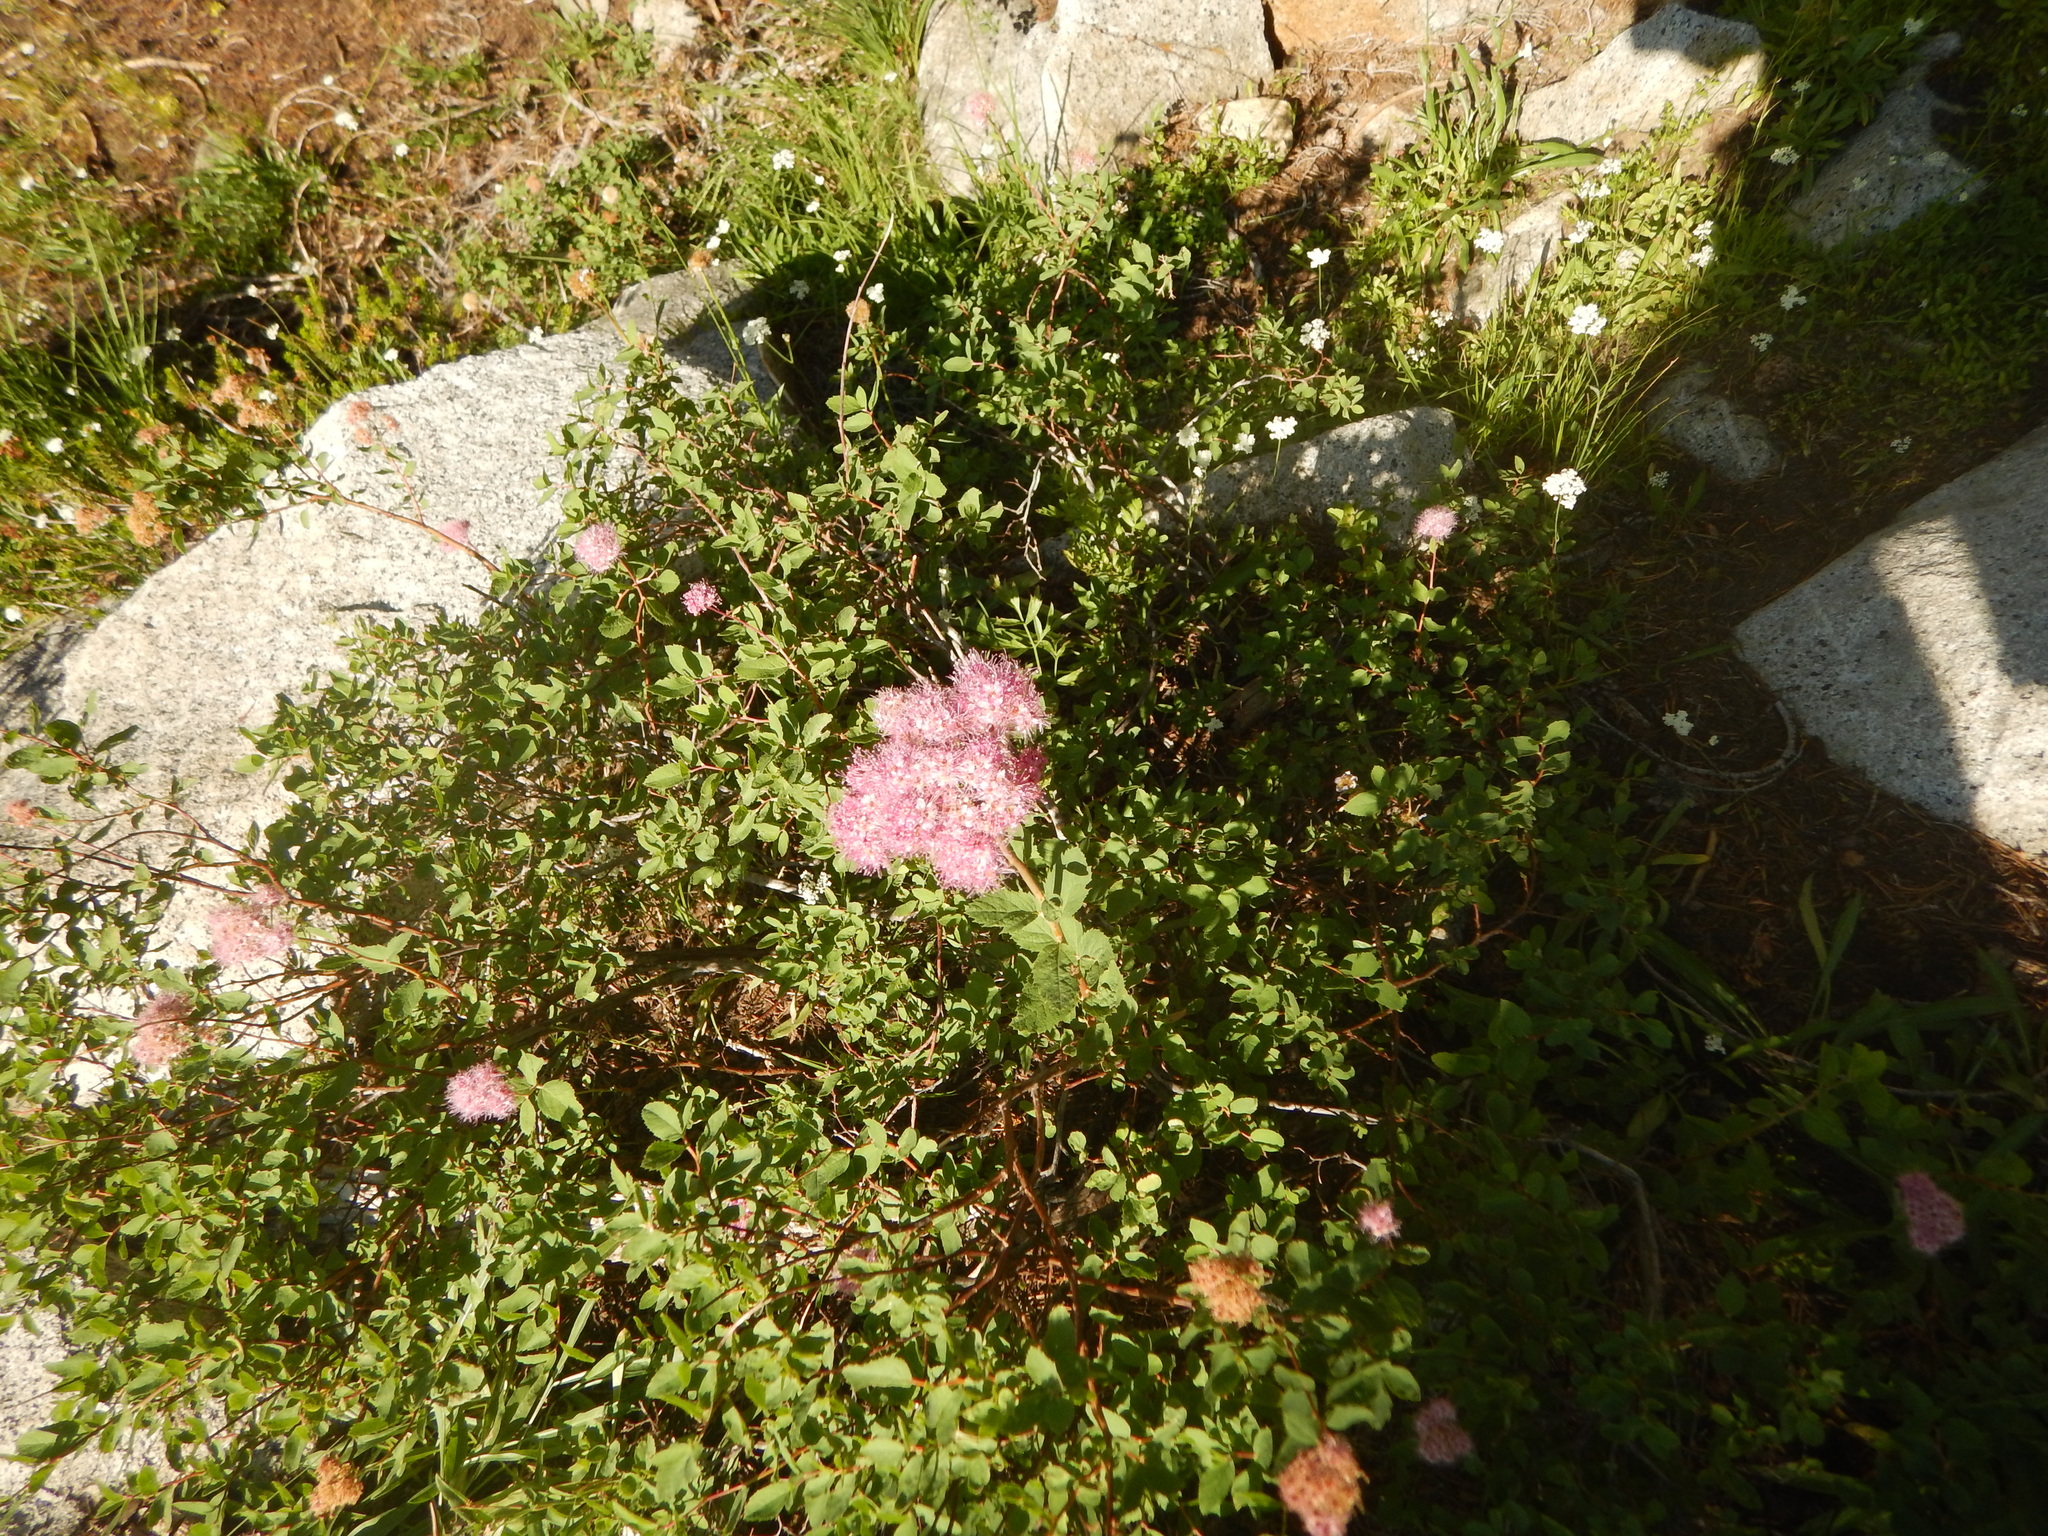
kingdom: Plantae
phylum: Tracheophyta
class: Magnoliopsida
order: Rosales
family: Rosaceae
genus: Spiraea
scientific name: Spiraea splendens
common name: Subalpine meadowsweet
